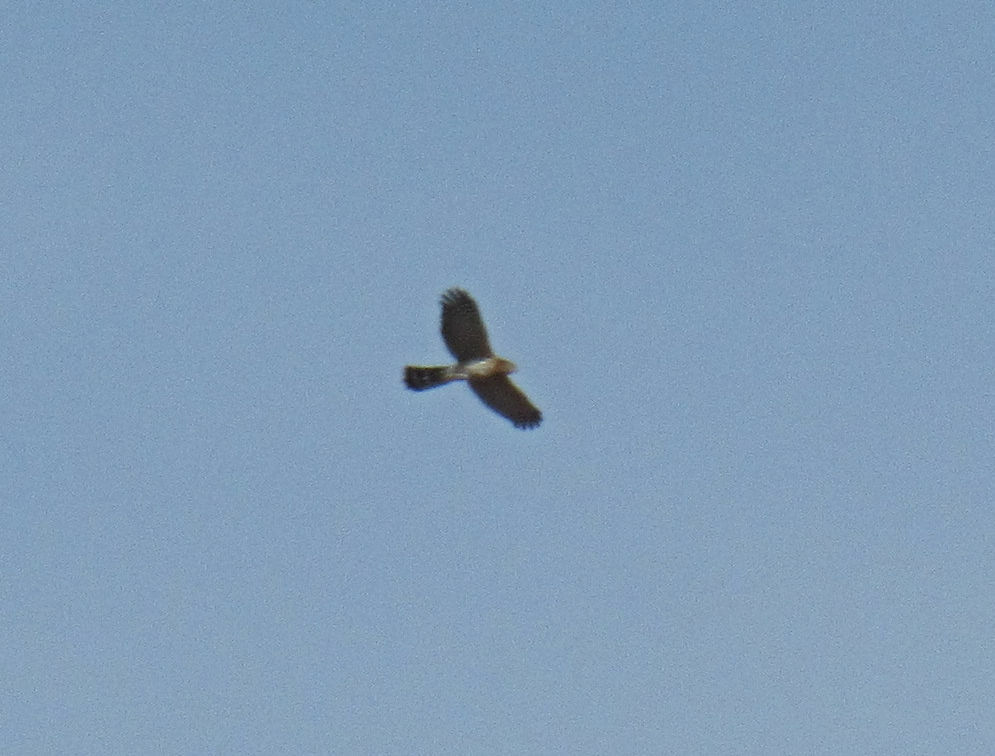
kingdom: Animalia
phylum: Chordata
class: Aves
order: Accipitriformes
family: Accipitridae
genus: Accipiter
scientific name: Accipiter cooperii
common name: Cooper's hawk
